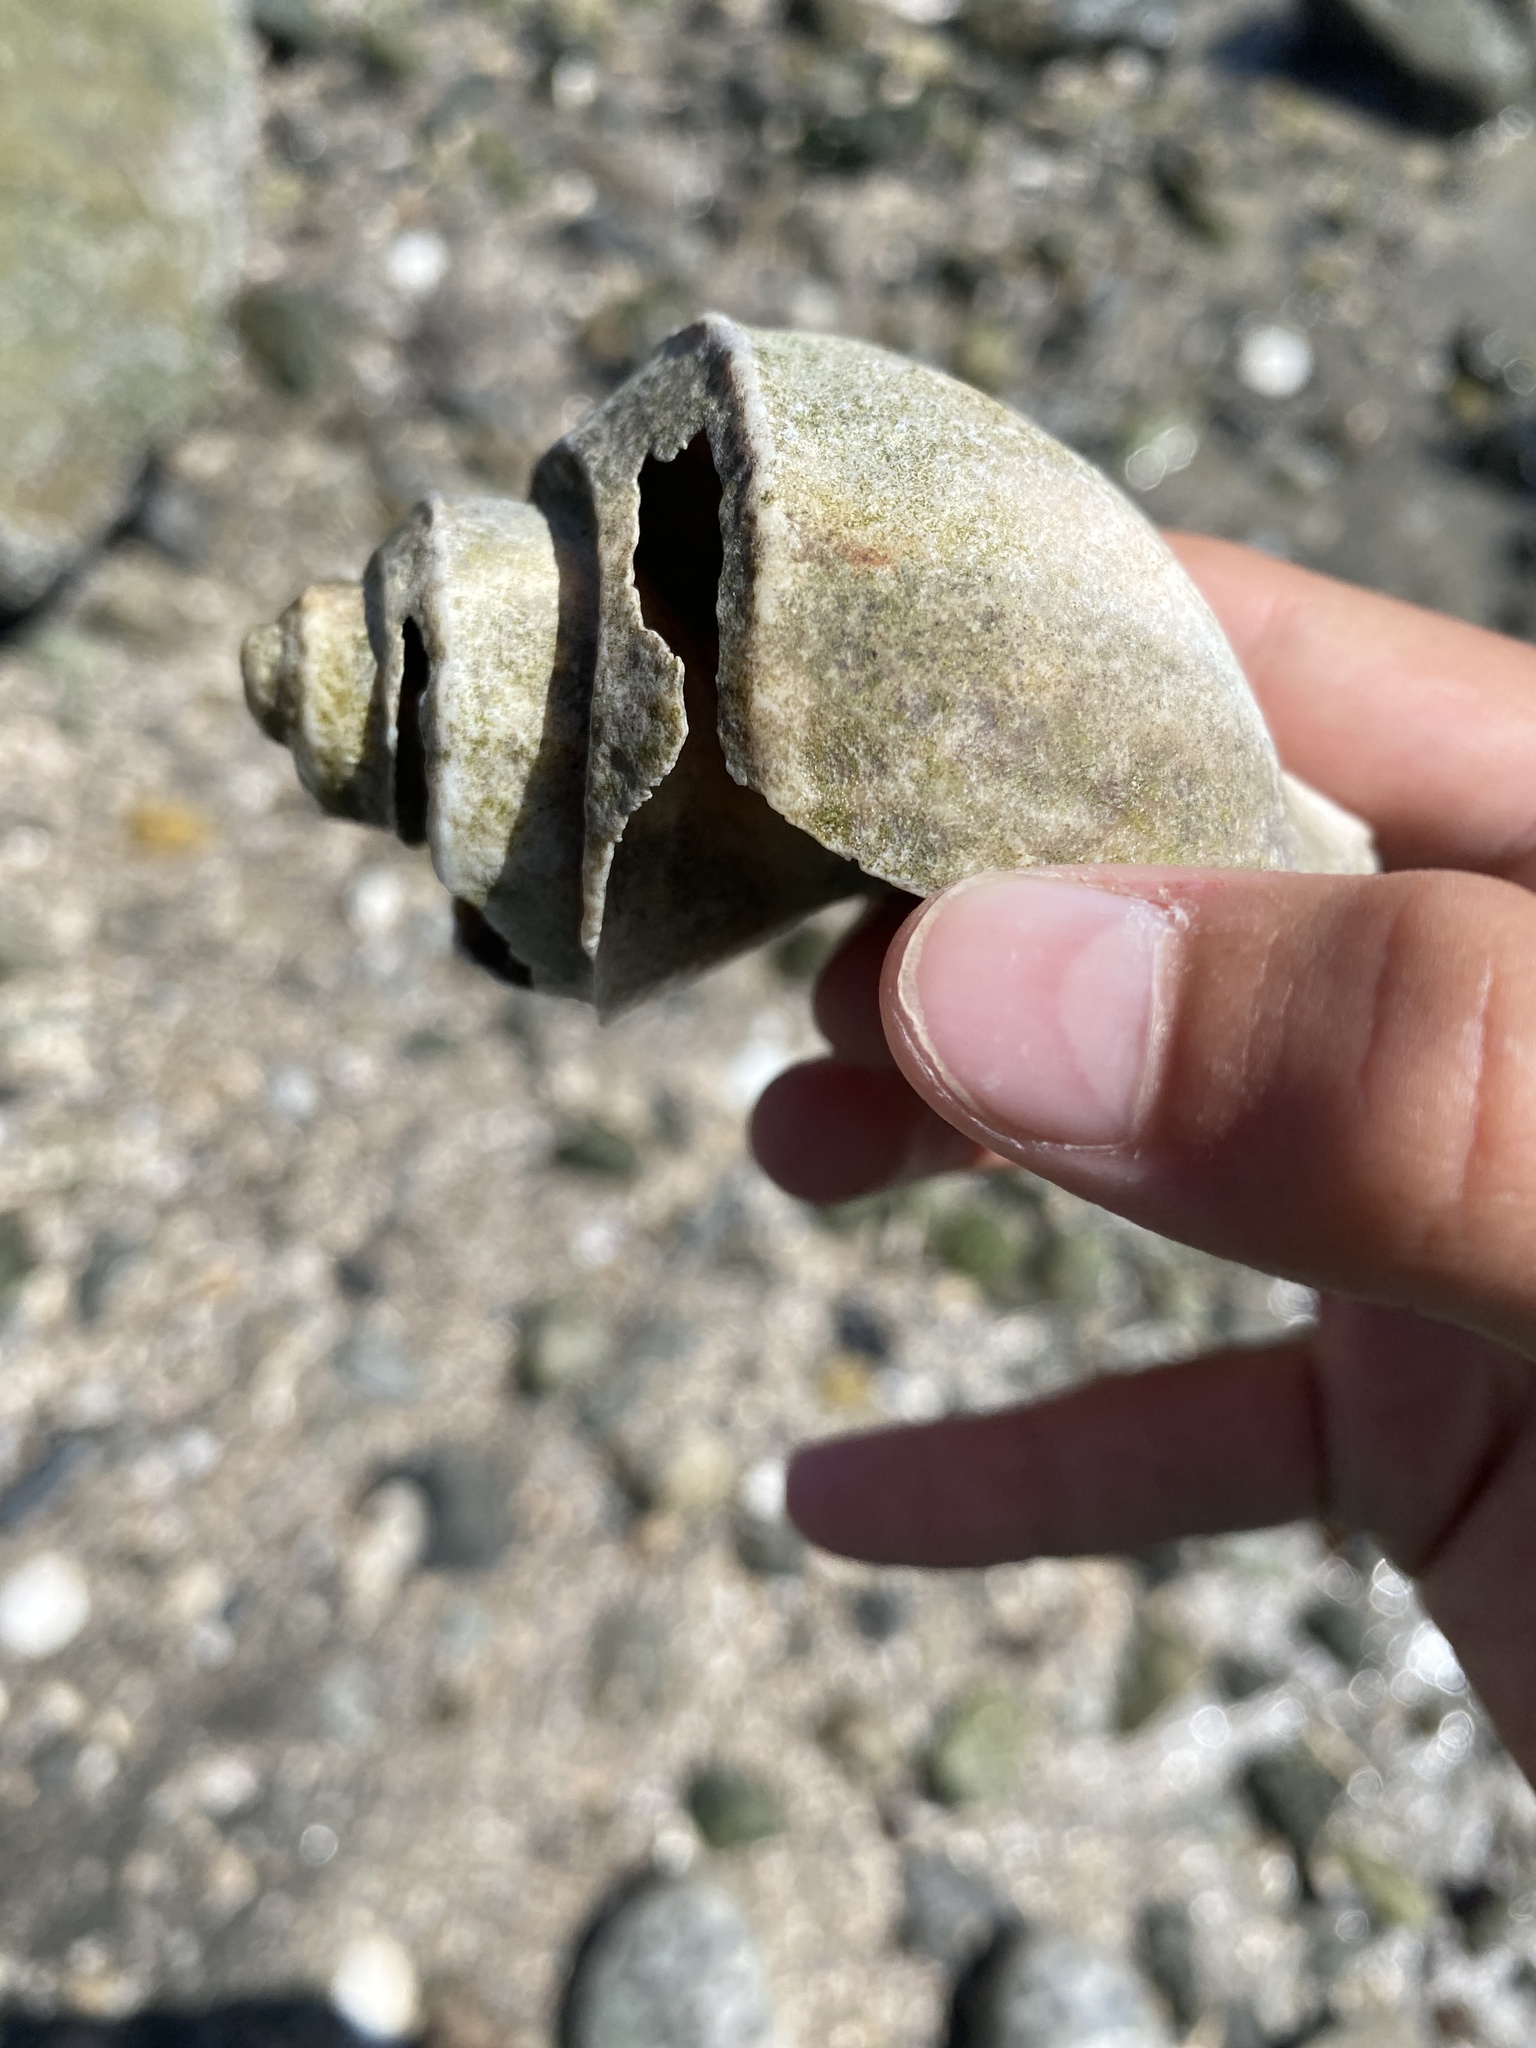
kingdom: Animalia
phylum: Mollusca
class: Gastropoda
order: Neogastropoda
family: Busyconidae
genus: Busycotypus
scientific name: Busycotypus canaliculatus
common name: Channeled whelk
